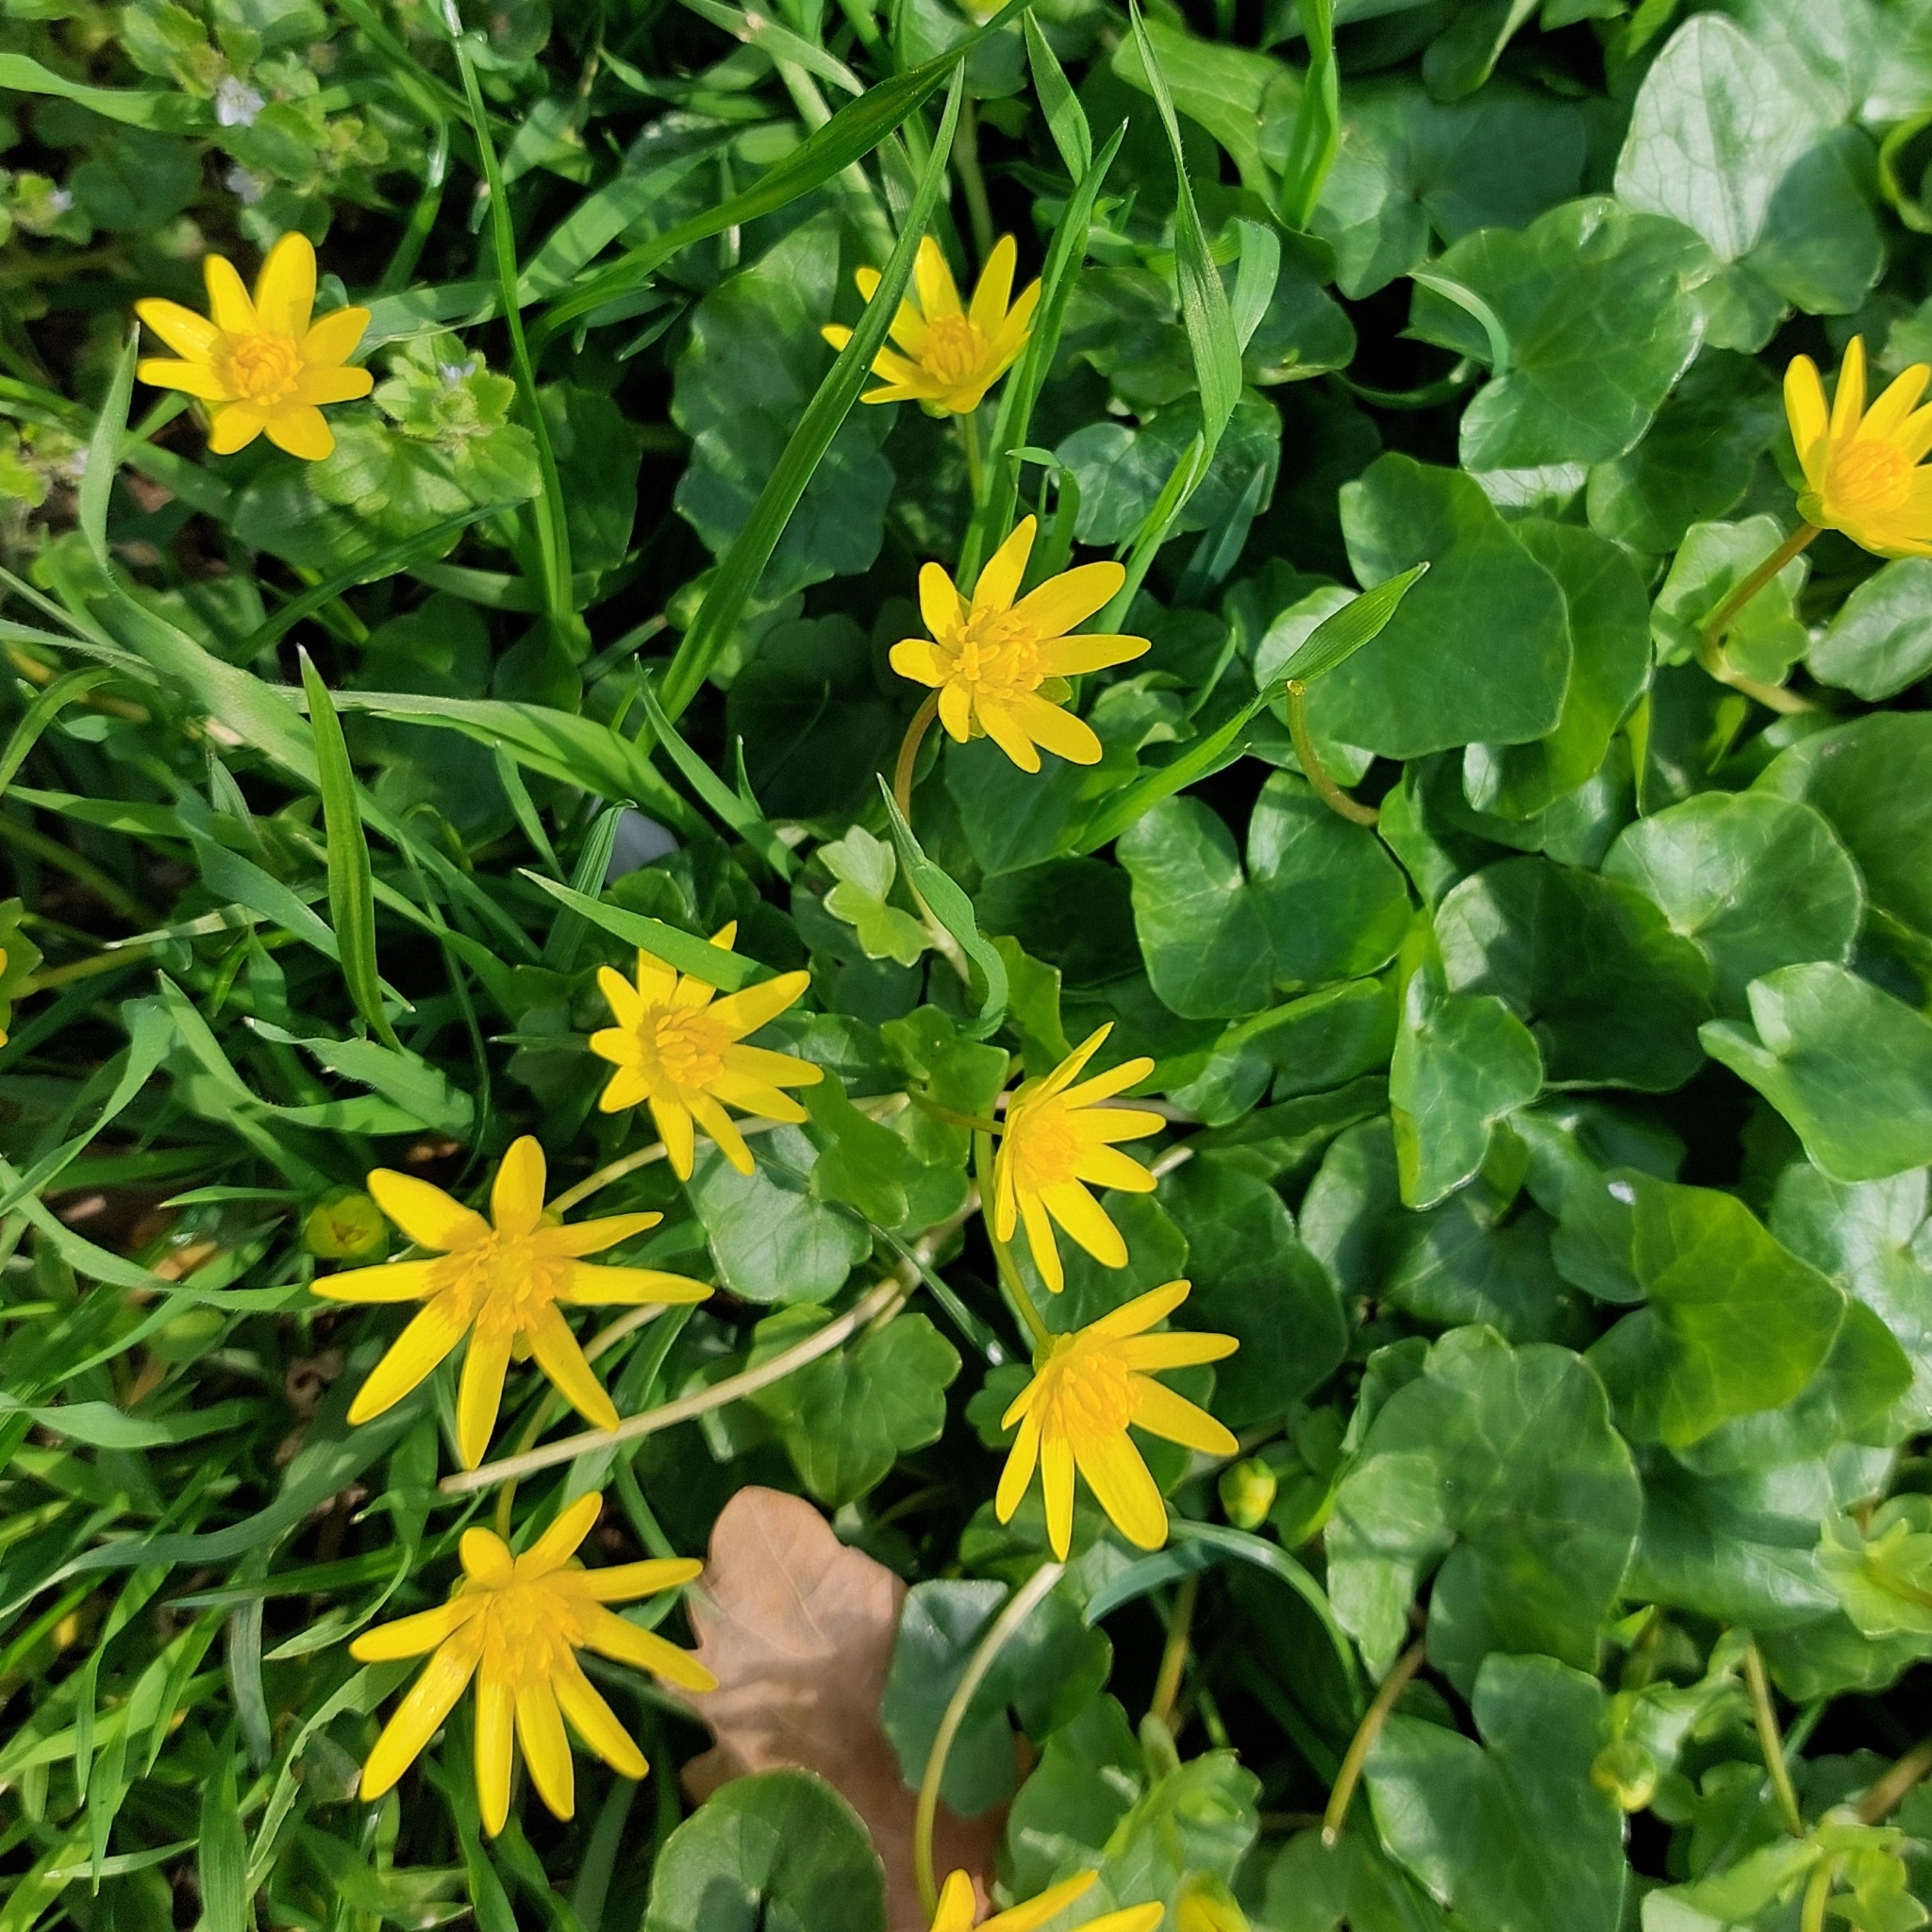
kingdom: Plantae
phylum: Tracheophyta
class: Magnoliopsida
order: Ranunculales
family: Ranunculaceae
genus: Ficaria
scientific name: Ficaria verna
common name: Lesser celandine
